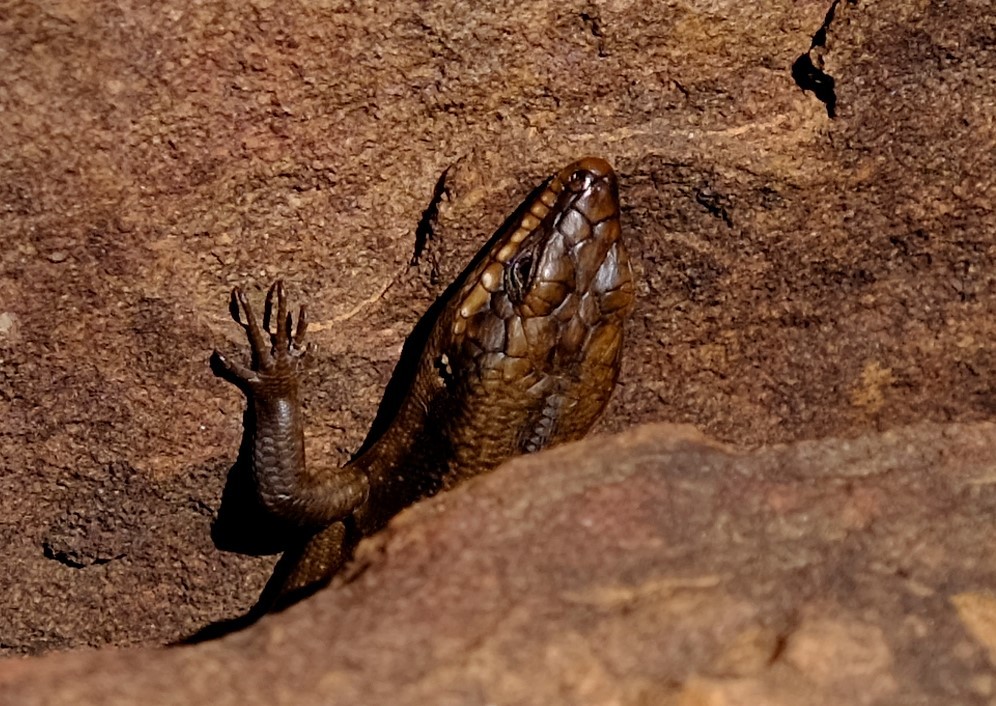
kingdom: Animalia
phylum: Chordata
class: Squamata
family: Scincidae
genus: Egernia
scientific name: Egernia striolata
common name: Tree skink
